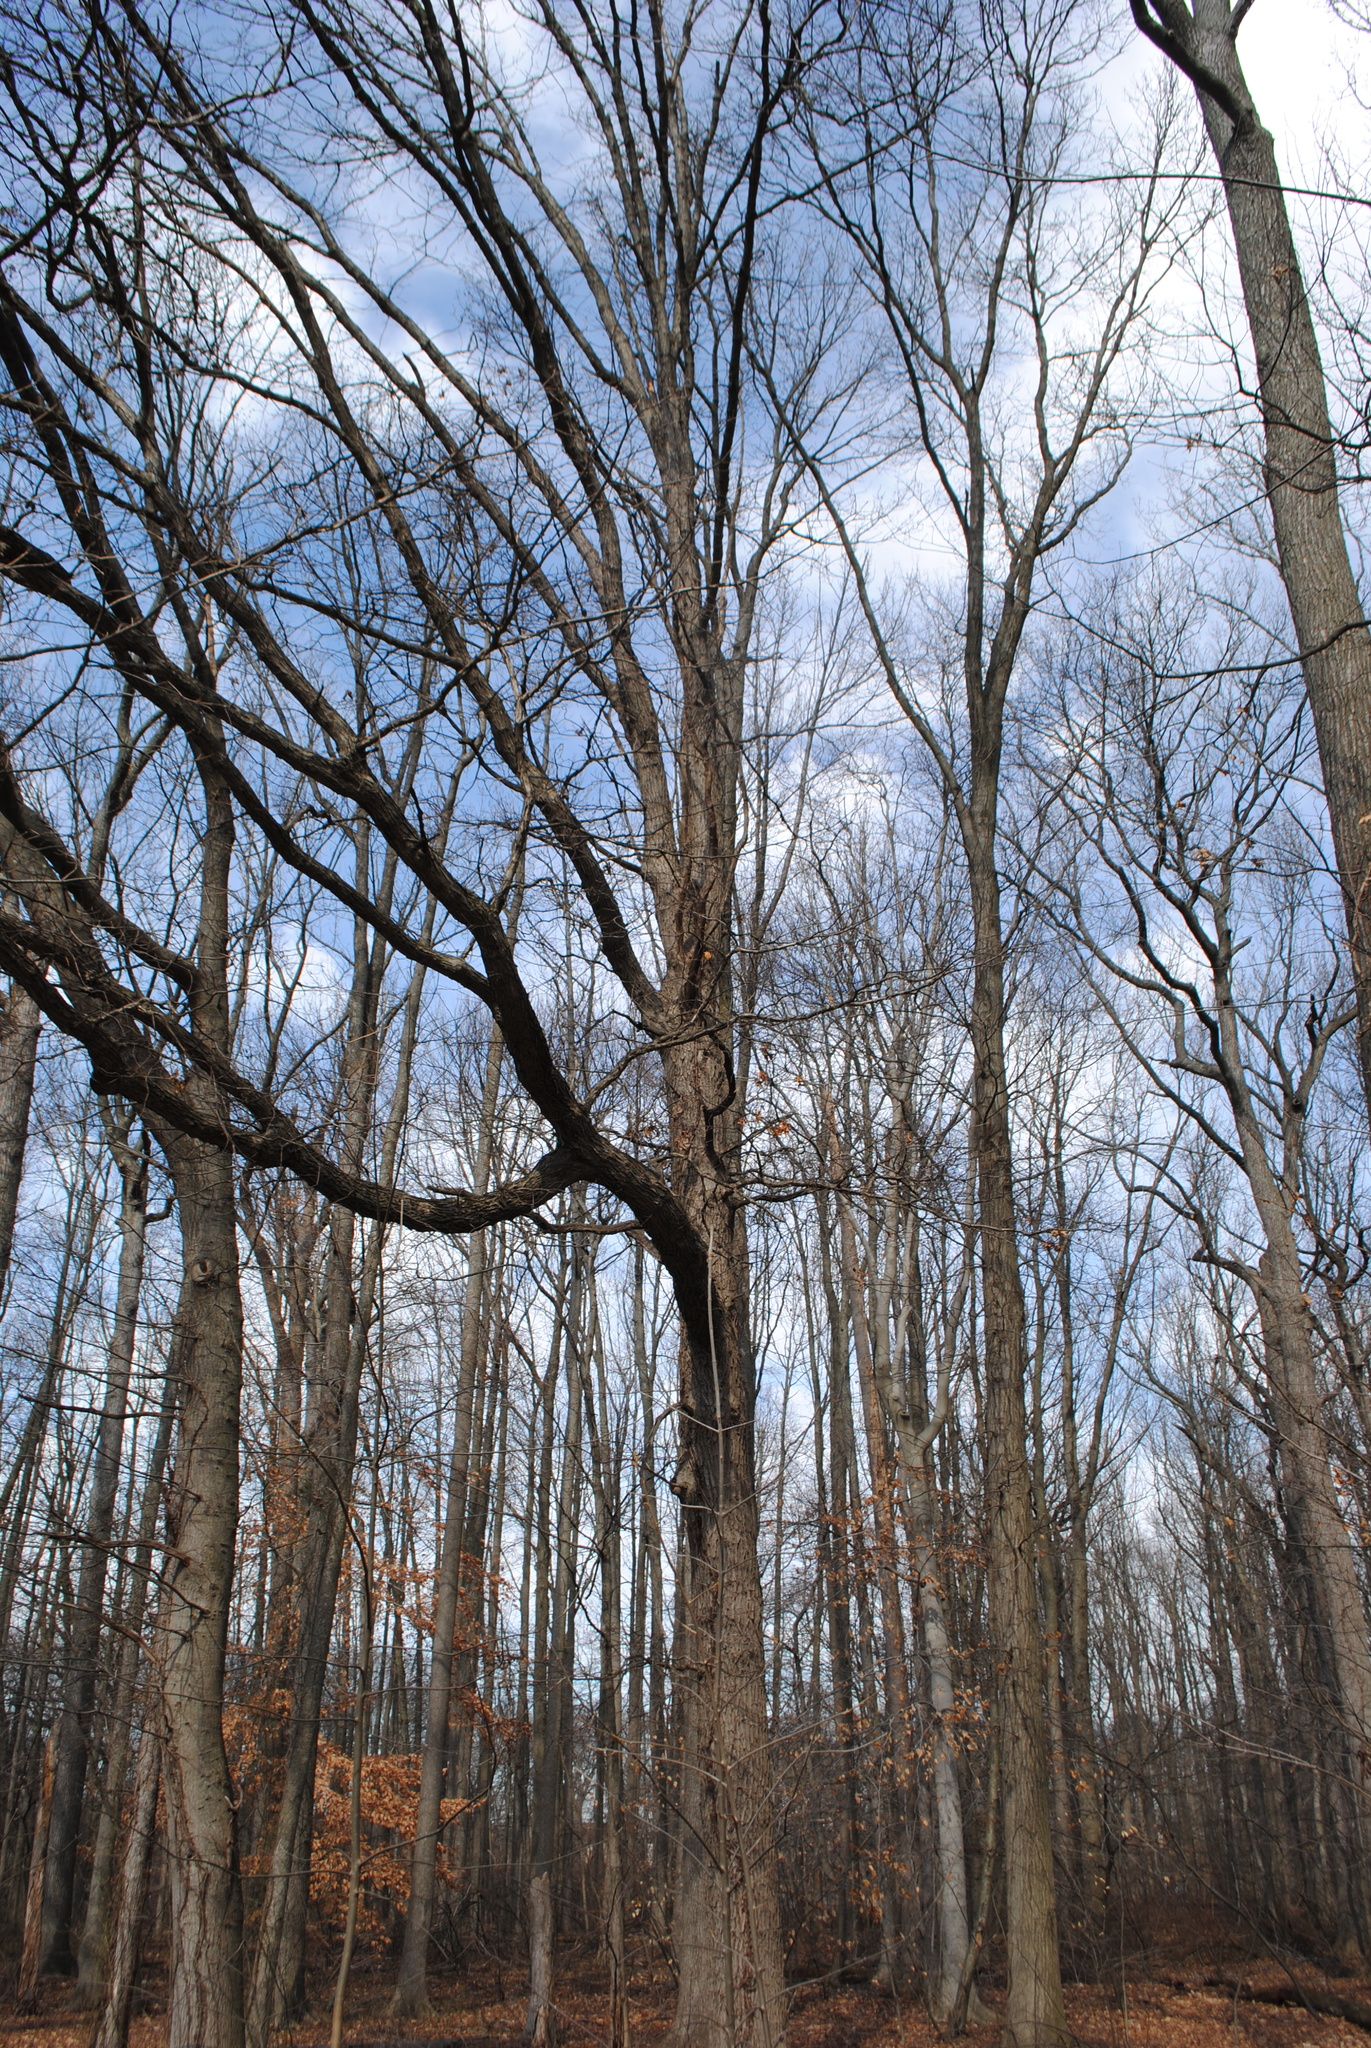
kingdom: Plantae
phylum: Tracheophyta
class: Magnoliopsida
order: Fagales
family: Fagaceae
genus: Quercus
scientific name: Quercus bicolor
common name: Swamp white oak
